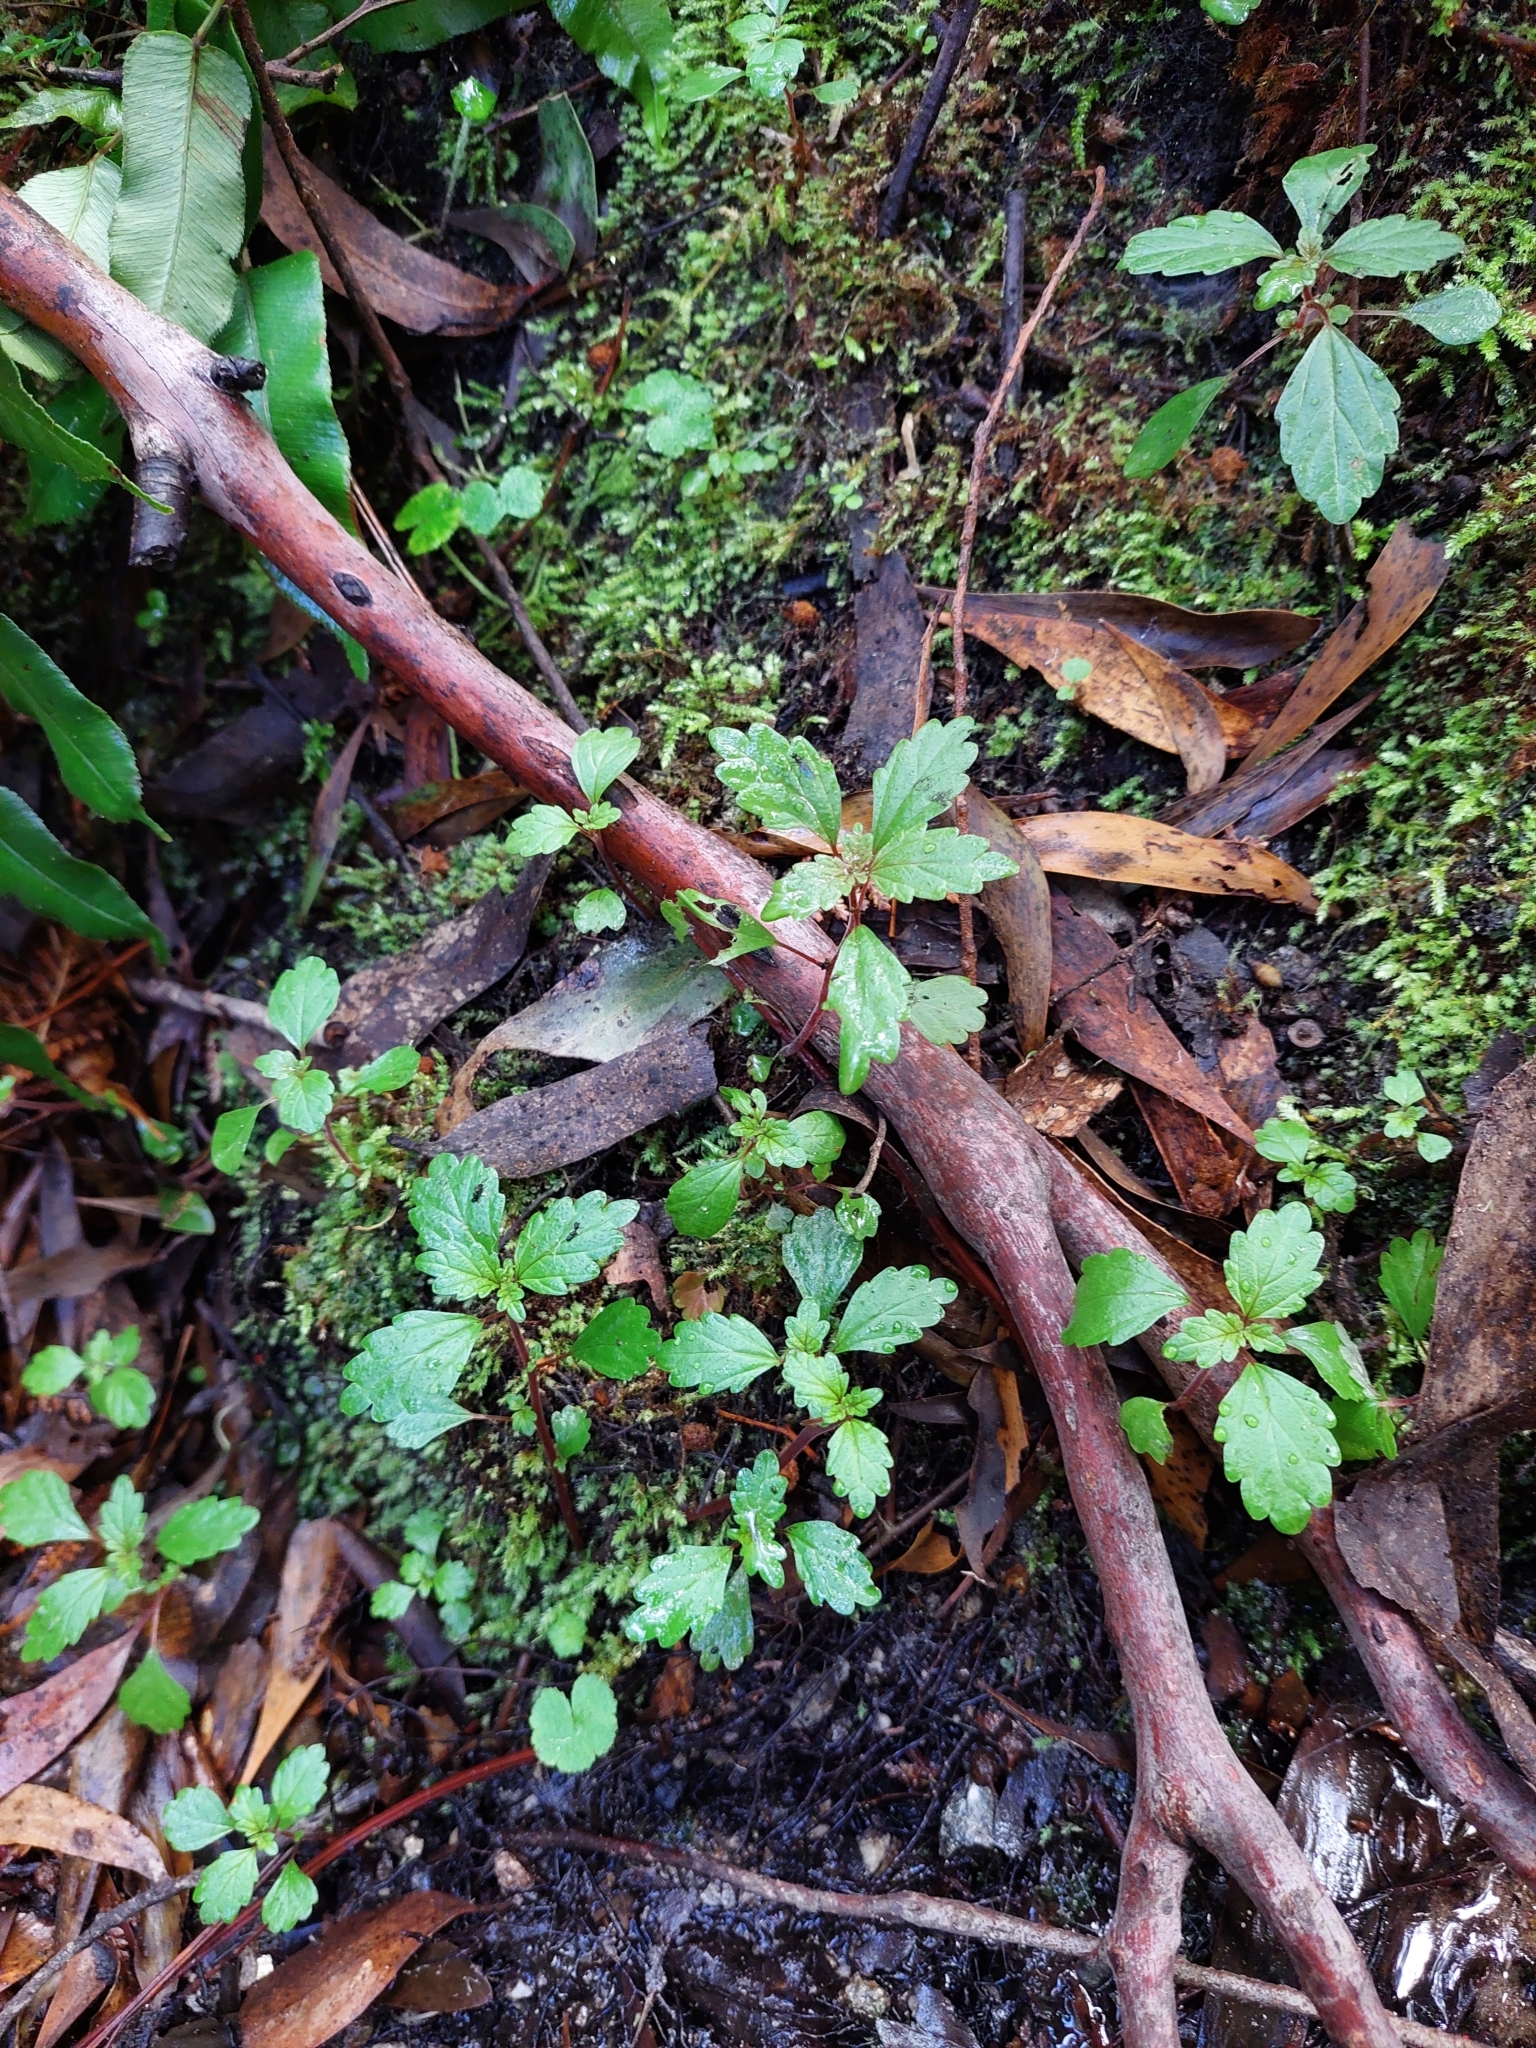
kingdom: Plantae
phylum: Tracheophyta
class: Magnoliopsida
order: Rosales
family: Urticaceae
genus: Australina
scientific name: Australina pusilla
